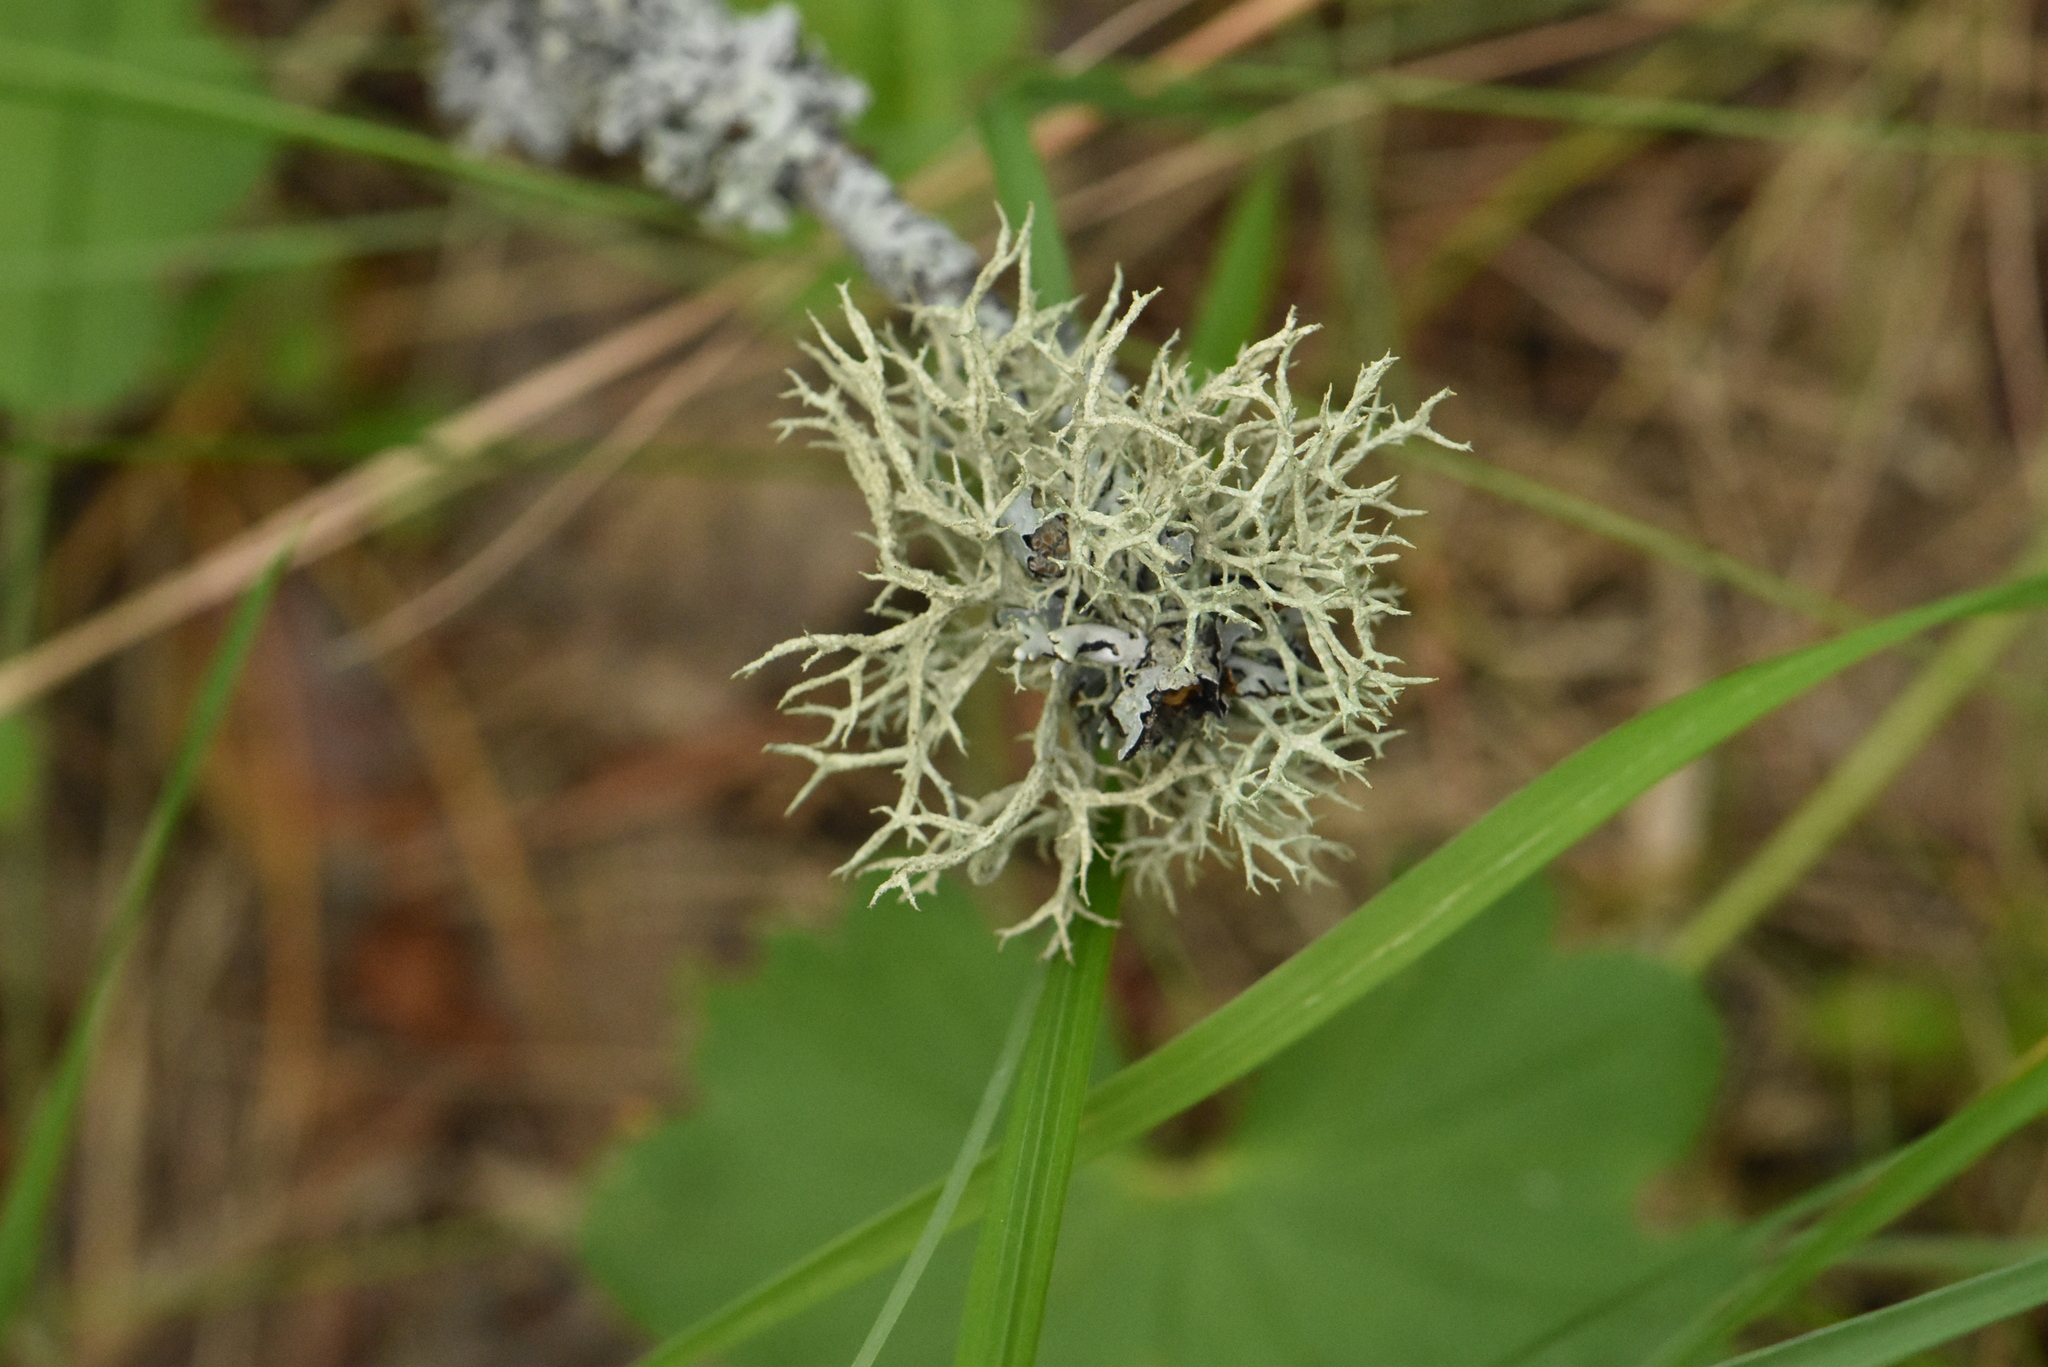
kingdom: Fungi
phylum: Ascomycota
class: Lecanoromycetes
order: Lecanorales
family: Parmeliaceae
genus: Evernia
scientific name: Evernia mesomorpha
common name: Boreal oak moss lichen
